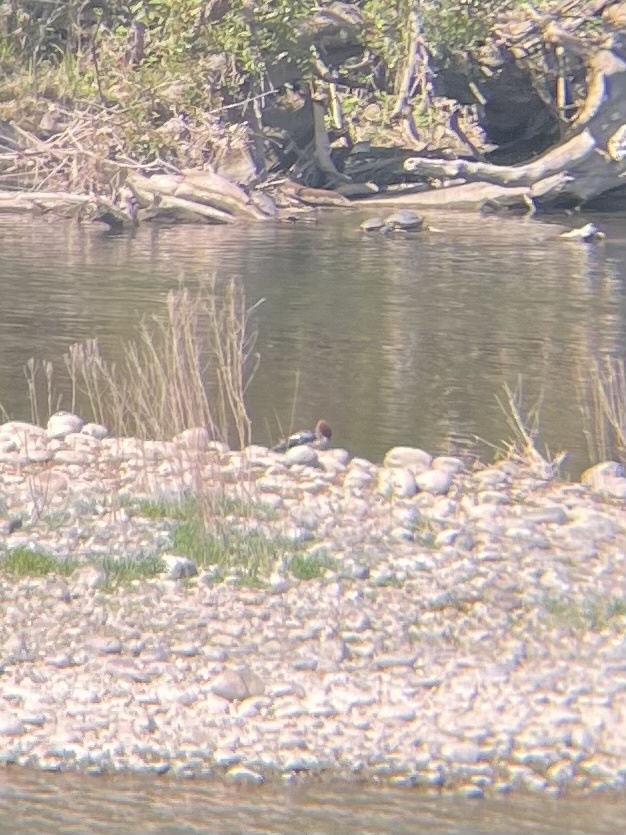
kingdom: Animalia
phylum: Chordata
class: Aves
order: Anseriformes
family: Anatidae
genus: Mergus
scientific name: Mergus merganser
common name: Common merganser
